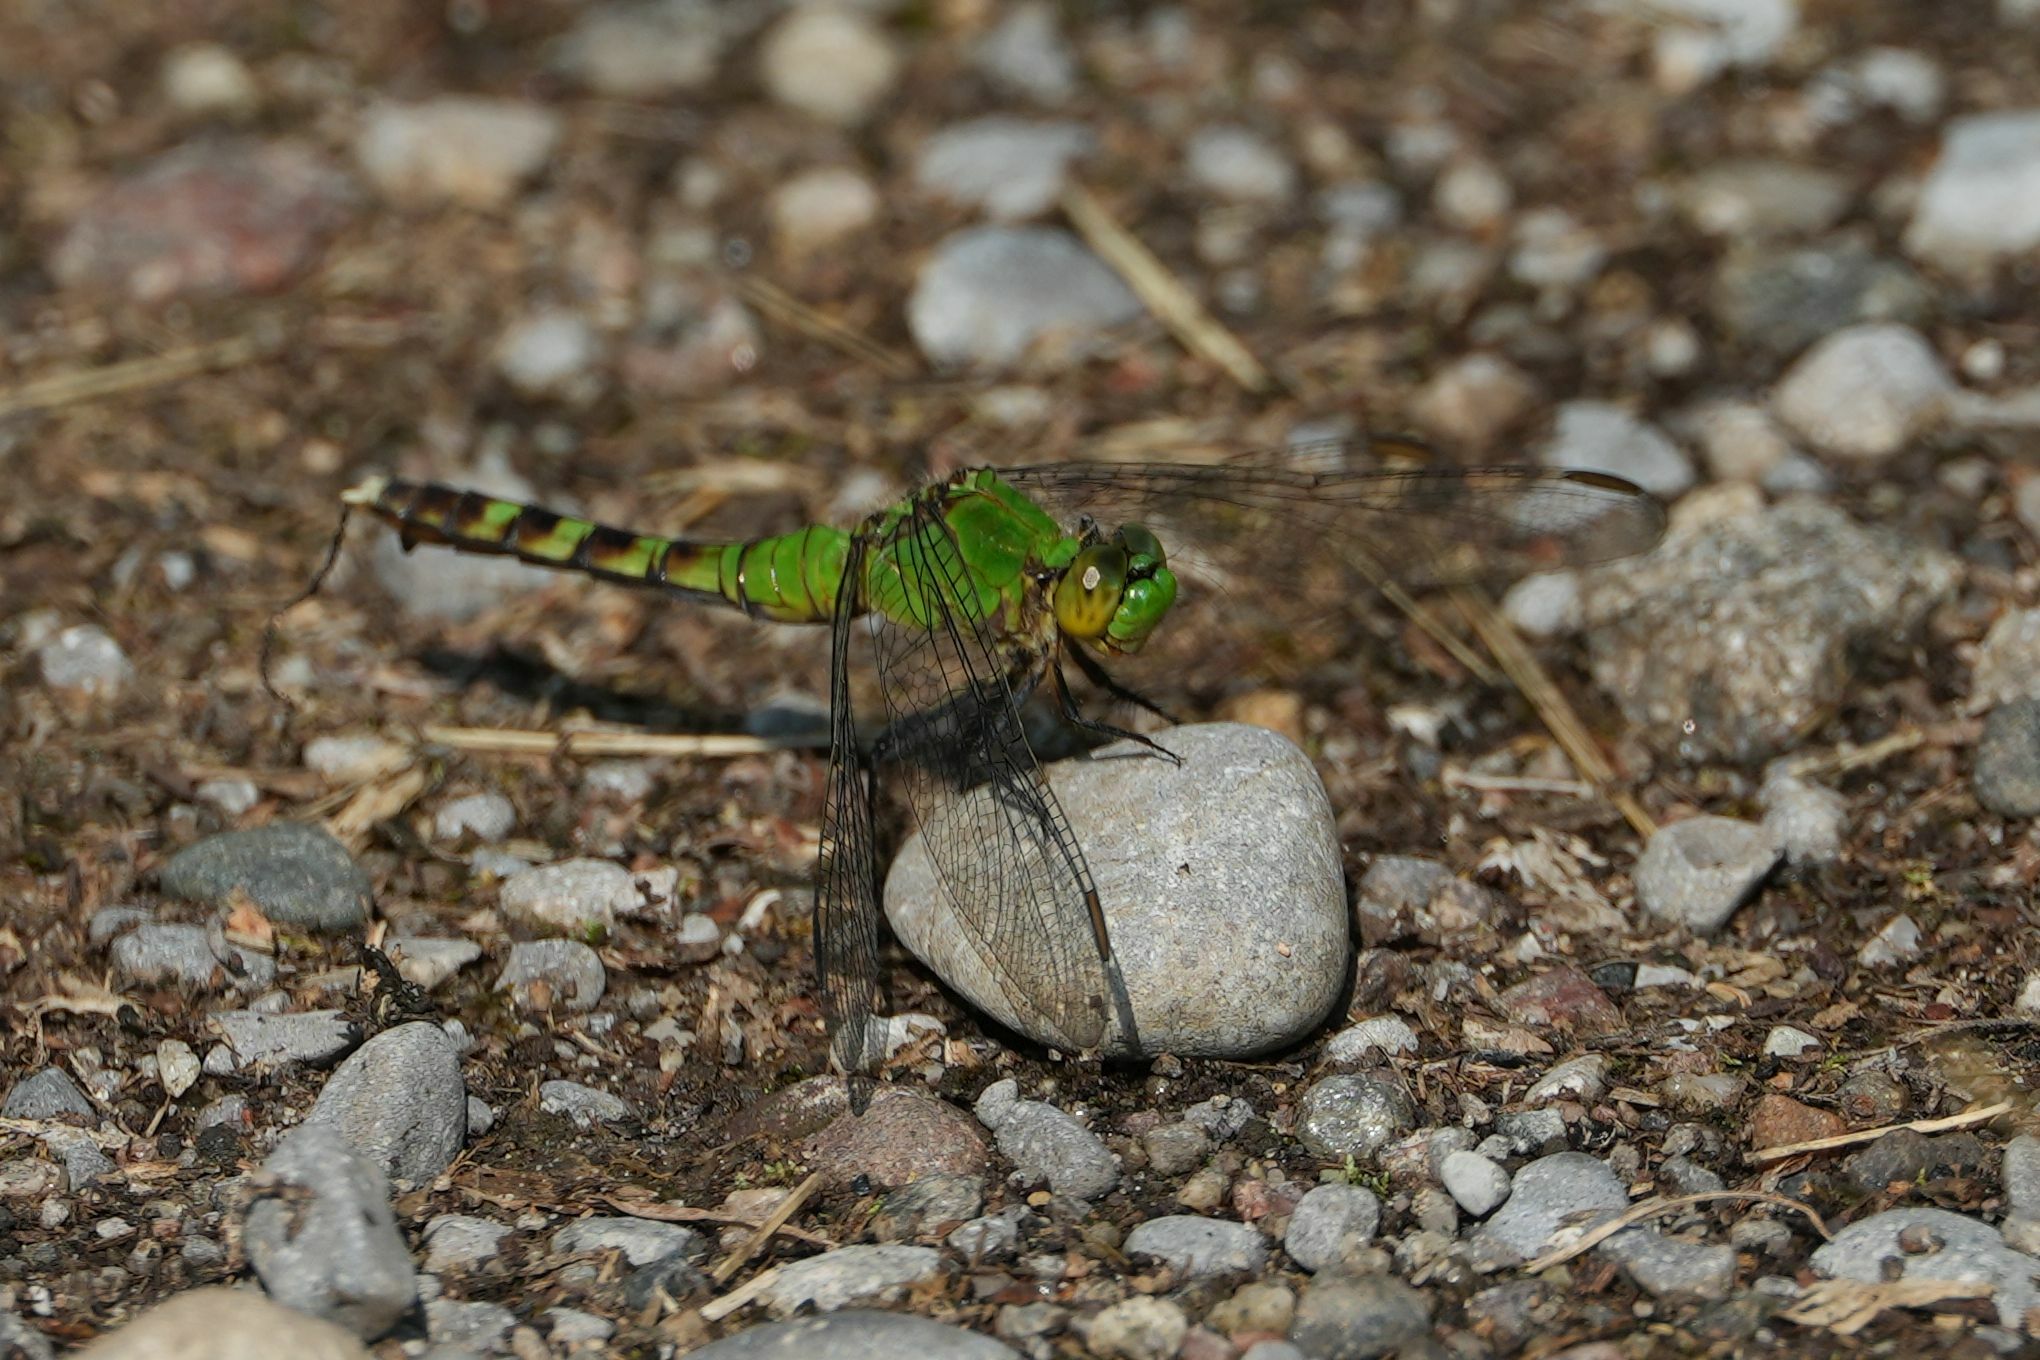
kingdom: Animalia
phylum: Arthropoda
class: Insecta
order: Odonata
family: Libellulidae
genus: Erythemis
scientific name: Erythemis simplicicollis
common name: Eastern pondhawk
